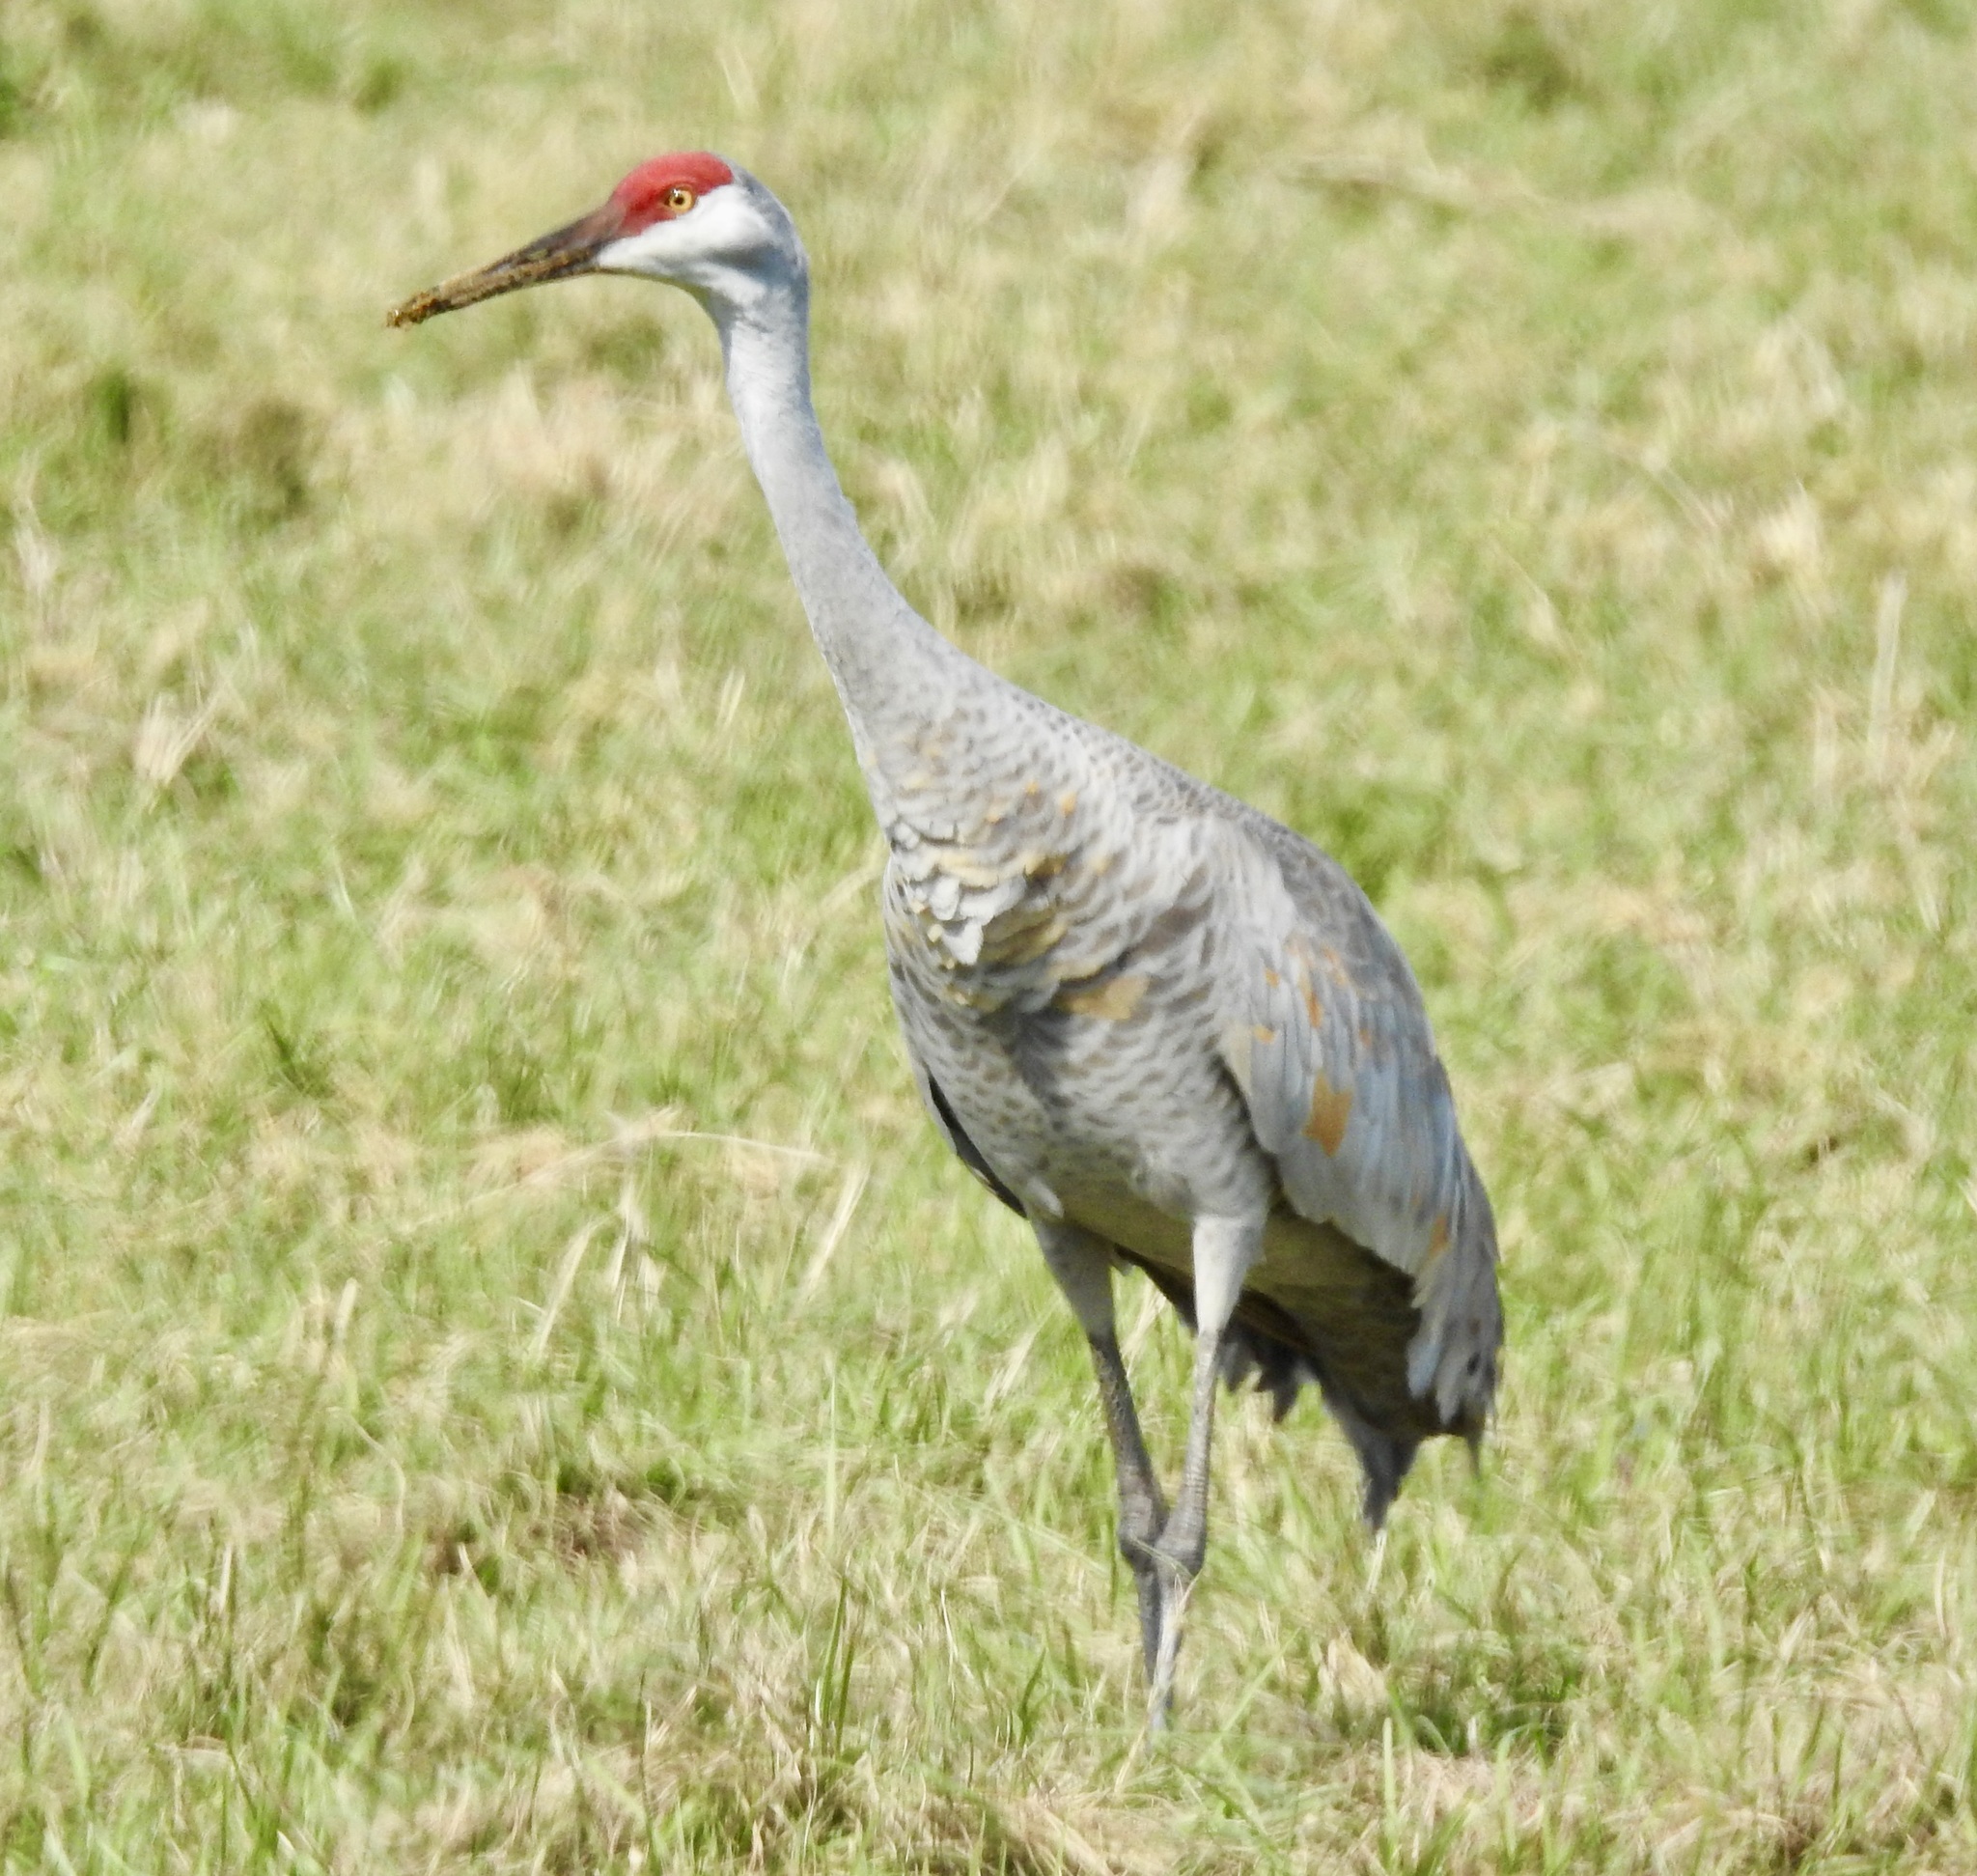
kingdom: Animalia
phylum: Chordata
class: Aves
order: Gruiformes
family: Gruidae
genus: Grus
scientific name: Grus canadensis
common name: Sandhill crane
